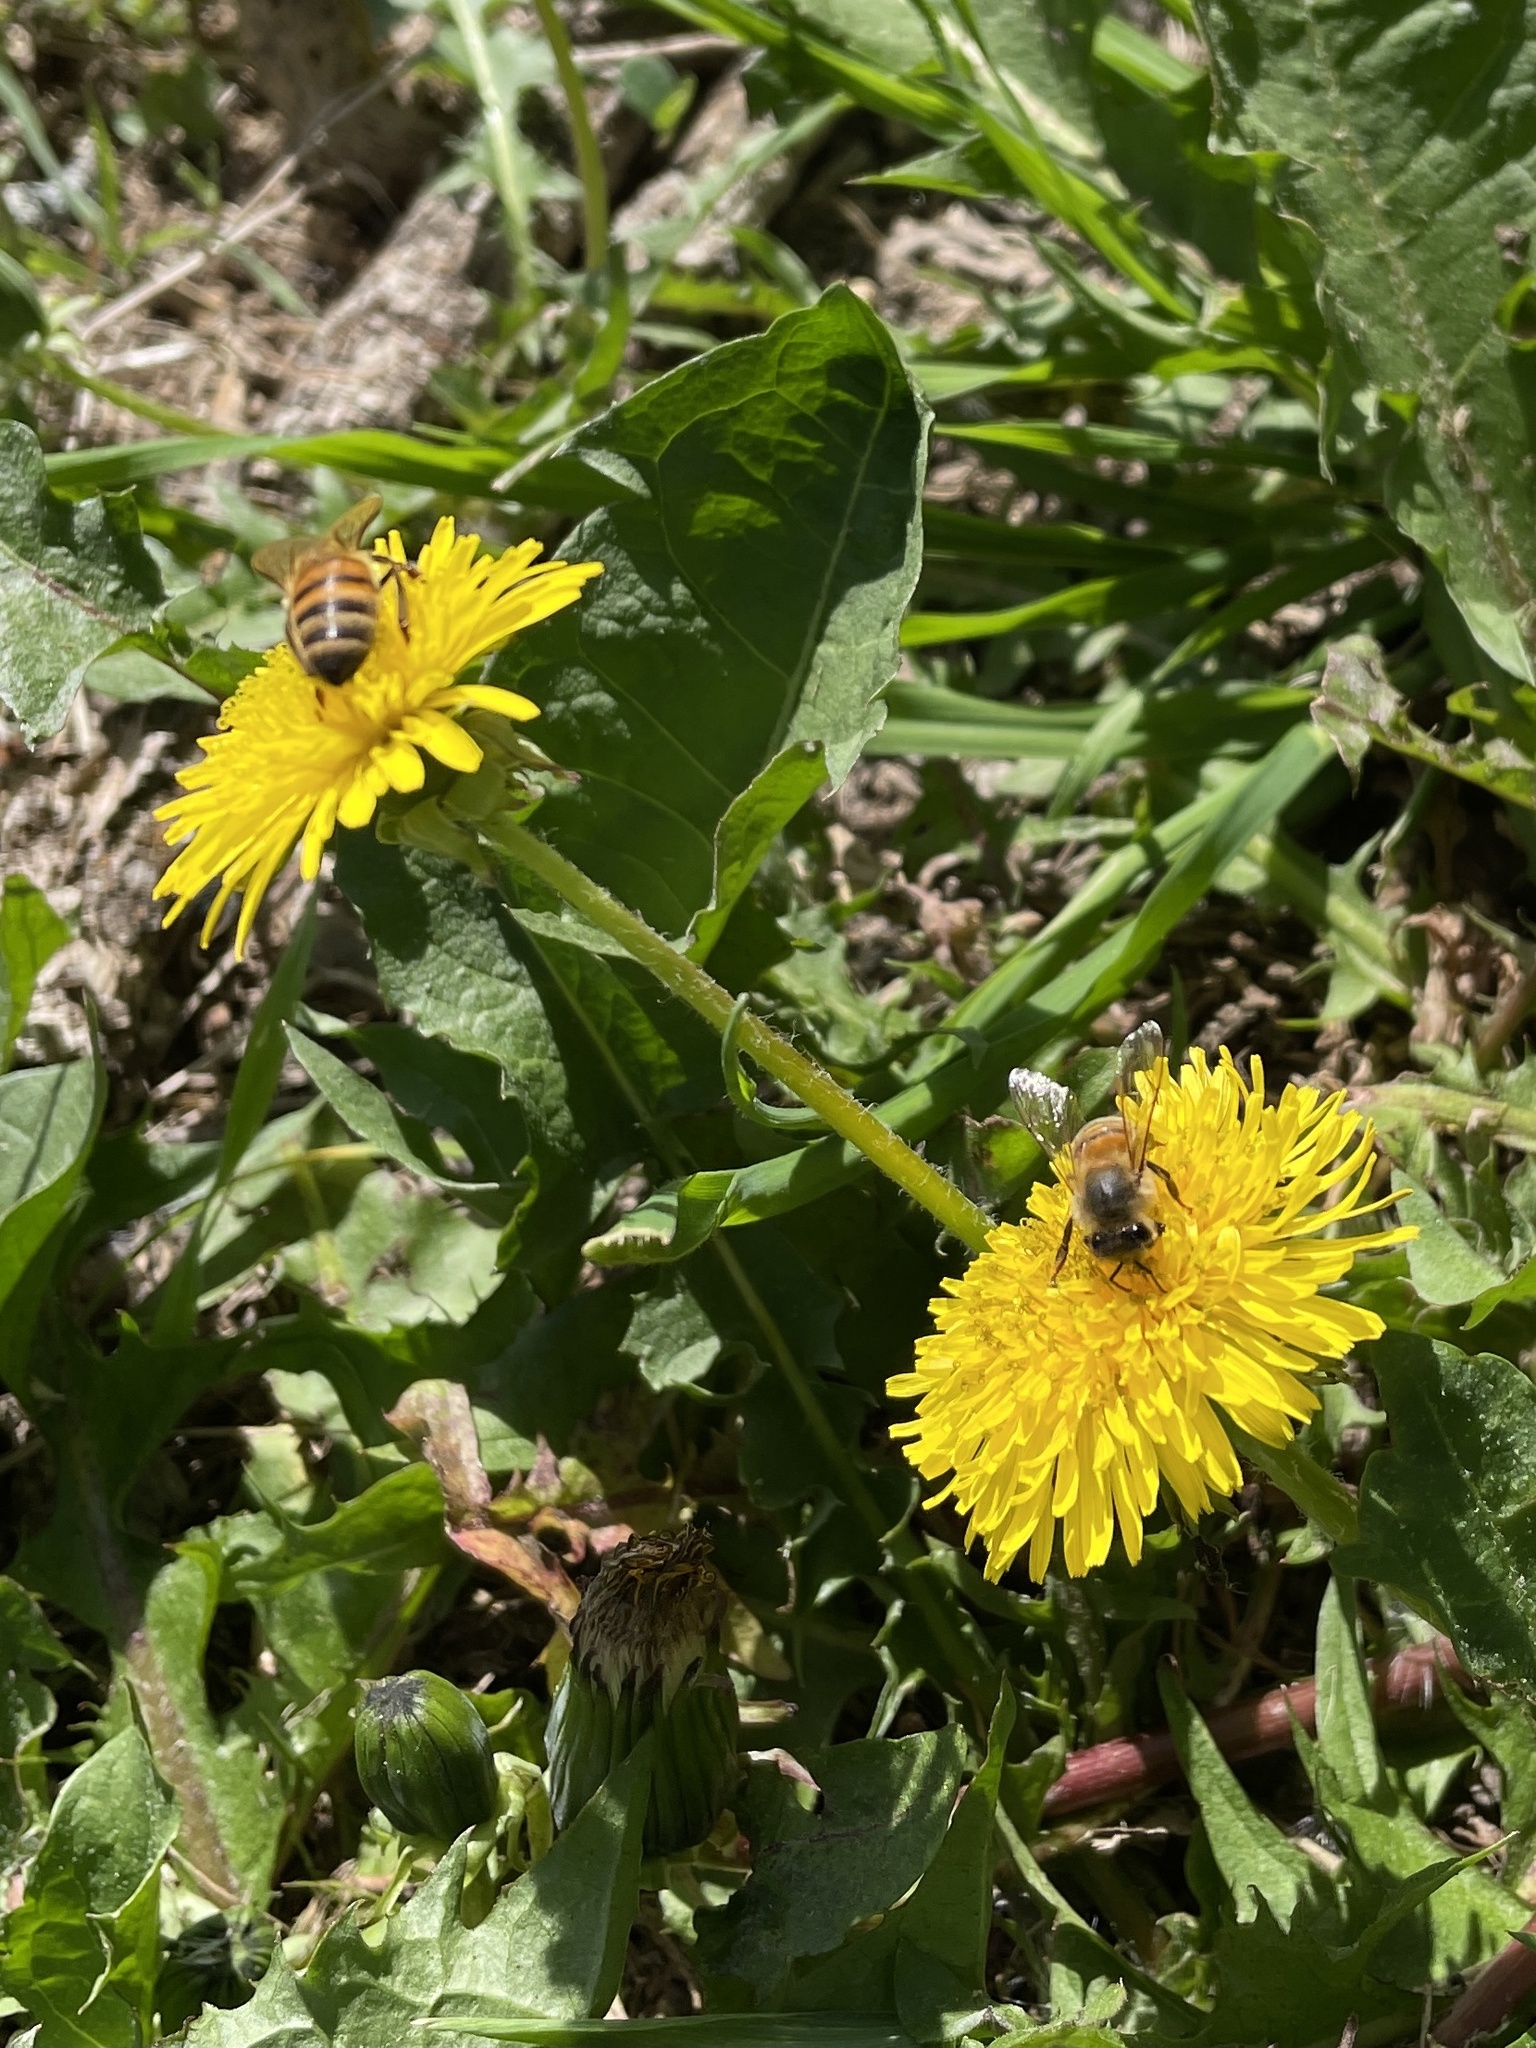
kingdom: Animalia
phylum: Arthropoda
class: Insecta
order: Hymenoptera
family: Apidae
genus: Apis
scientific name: Apis mellifera
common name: Honey bee
